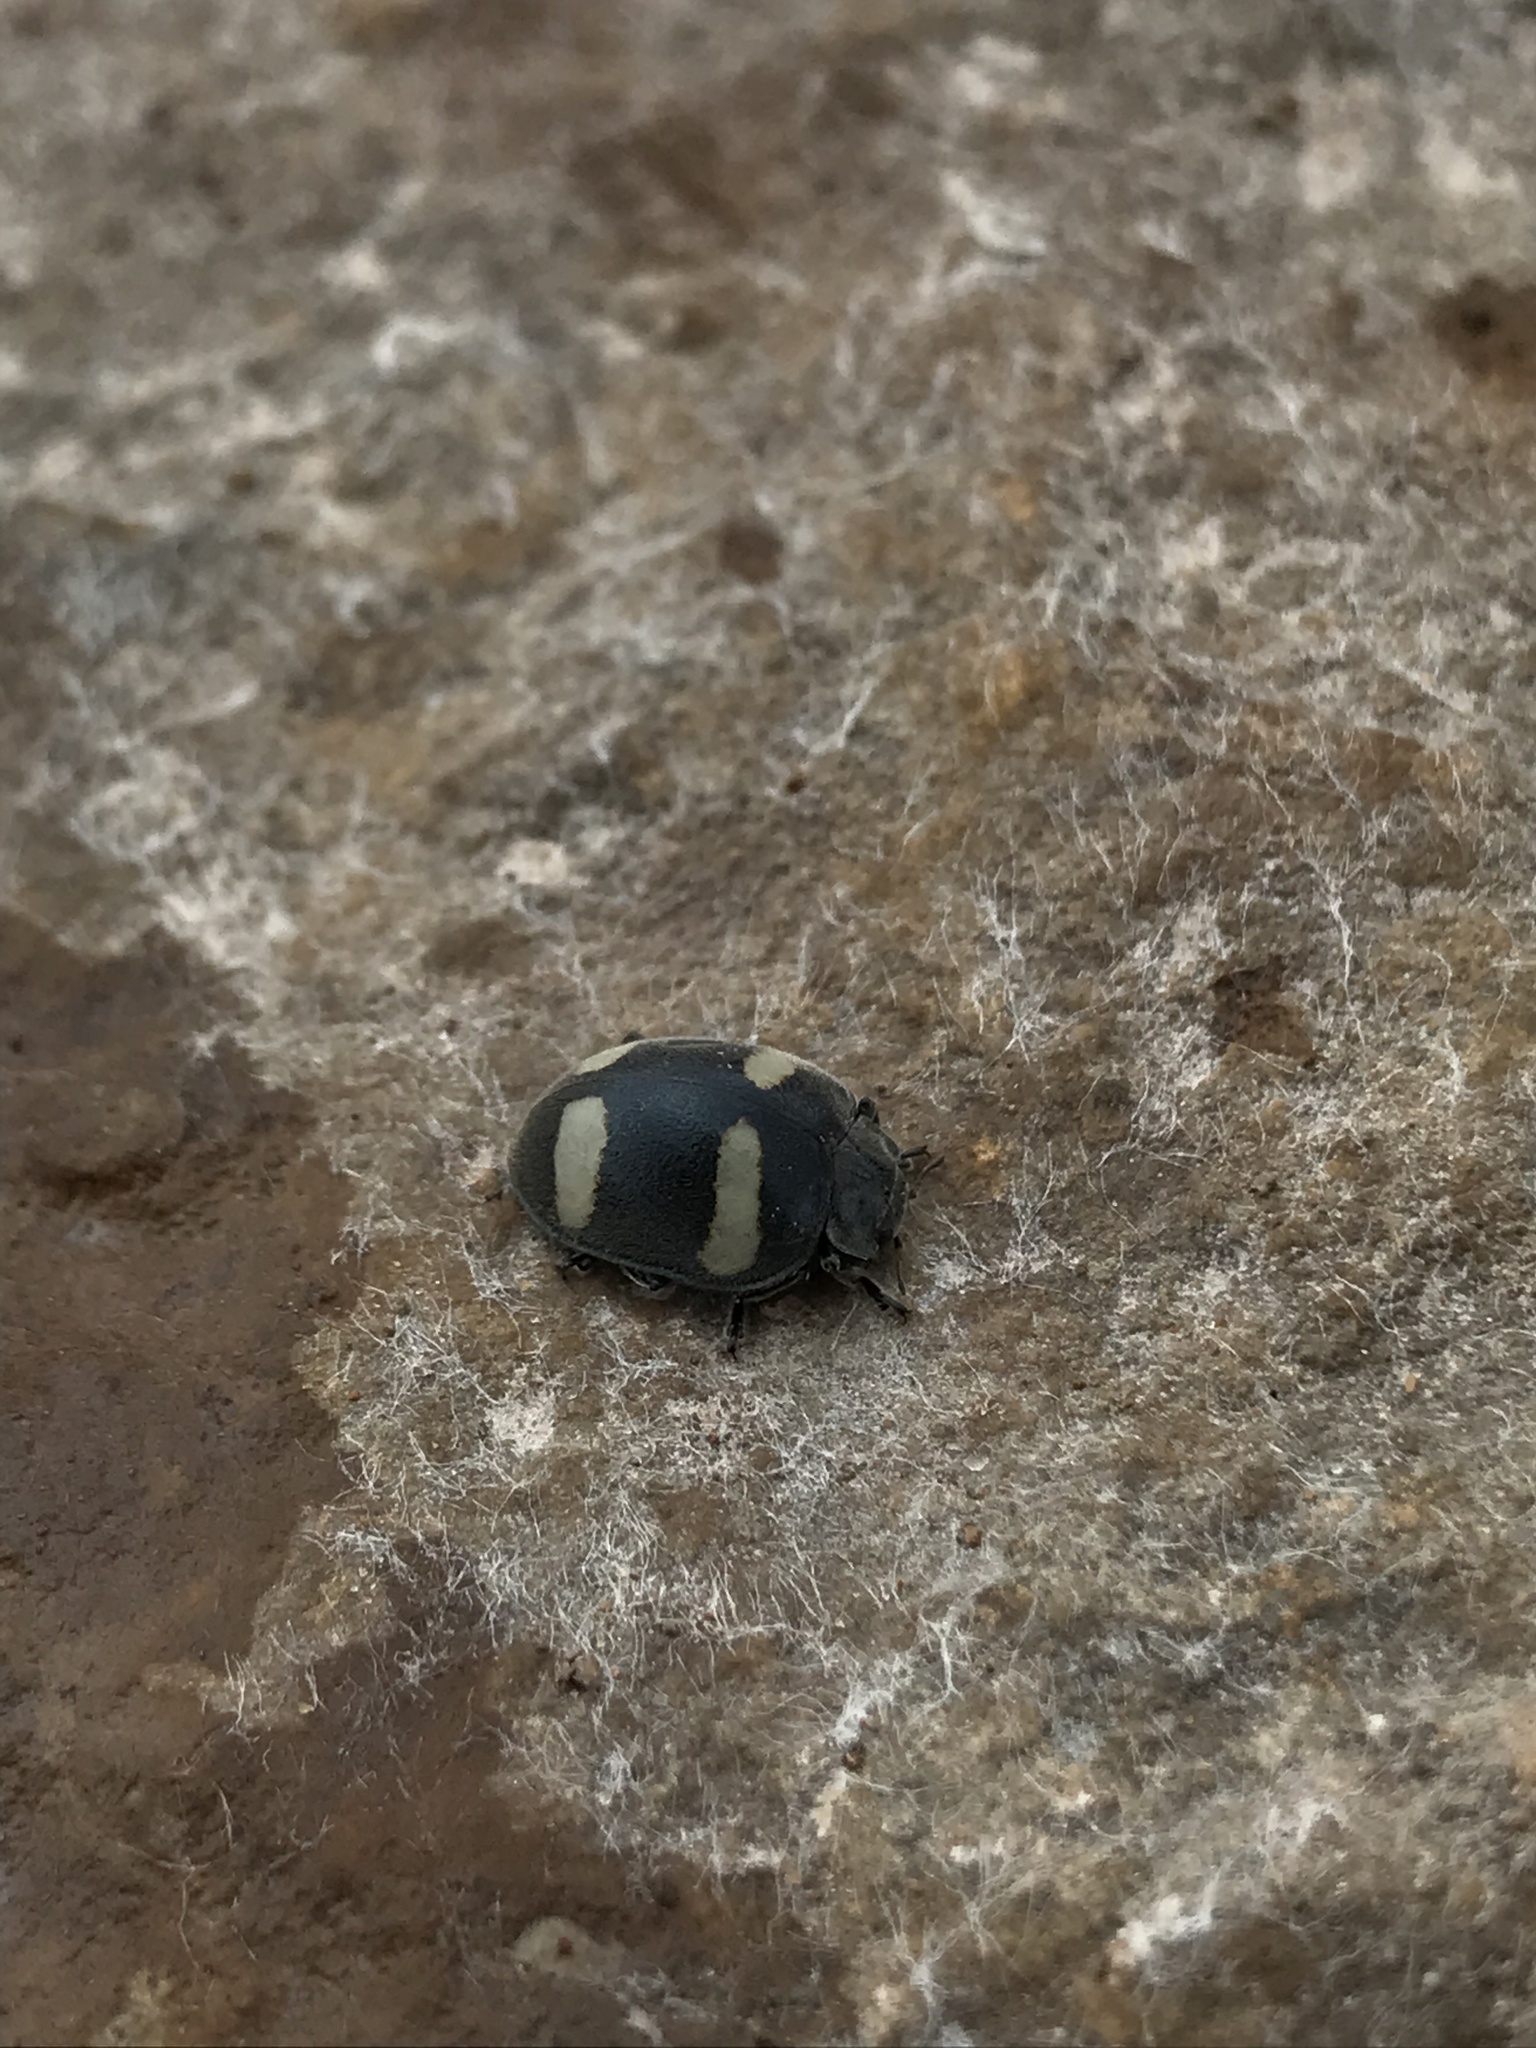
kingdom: Animalia
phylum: Arthropoda
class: Insecta
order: Coleoptera
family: Coccinellidae
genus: Toxotoma
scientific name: Toxotoma flavofasciata
